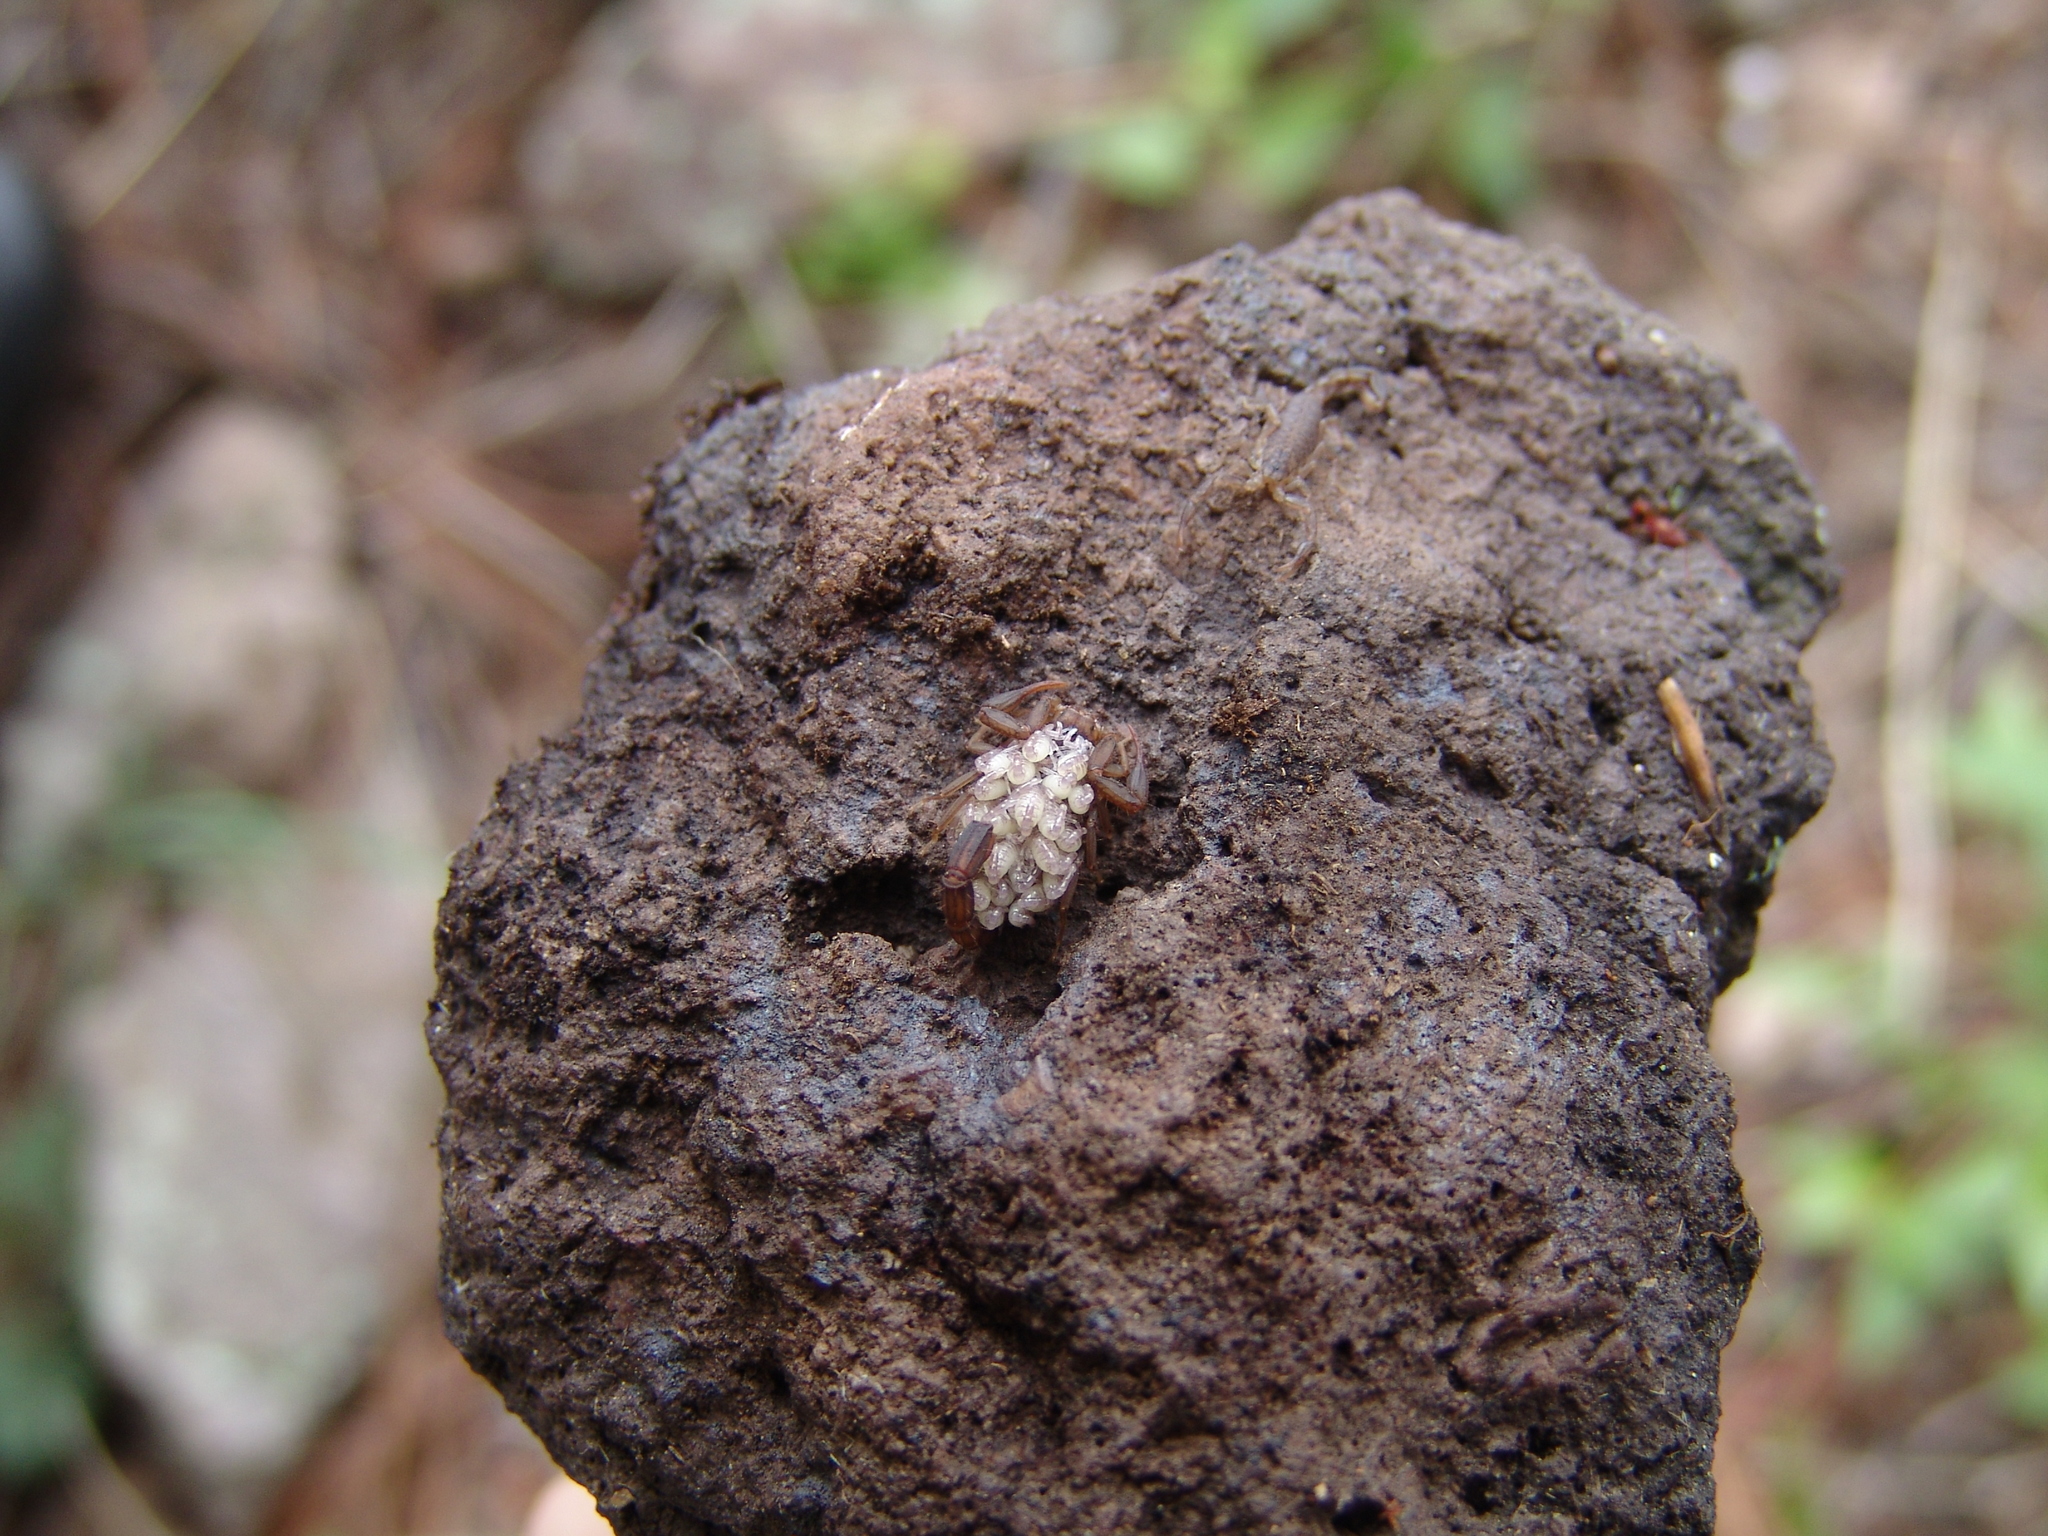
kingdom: Animalia
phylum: Arthropoda
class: Arachnida
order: Scorpiones
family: Vaejovidae
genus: Vaejovis
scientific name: Vaejovis cashi
